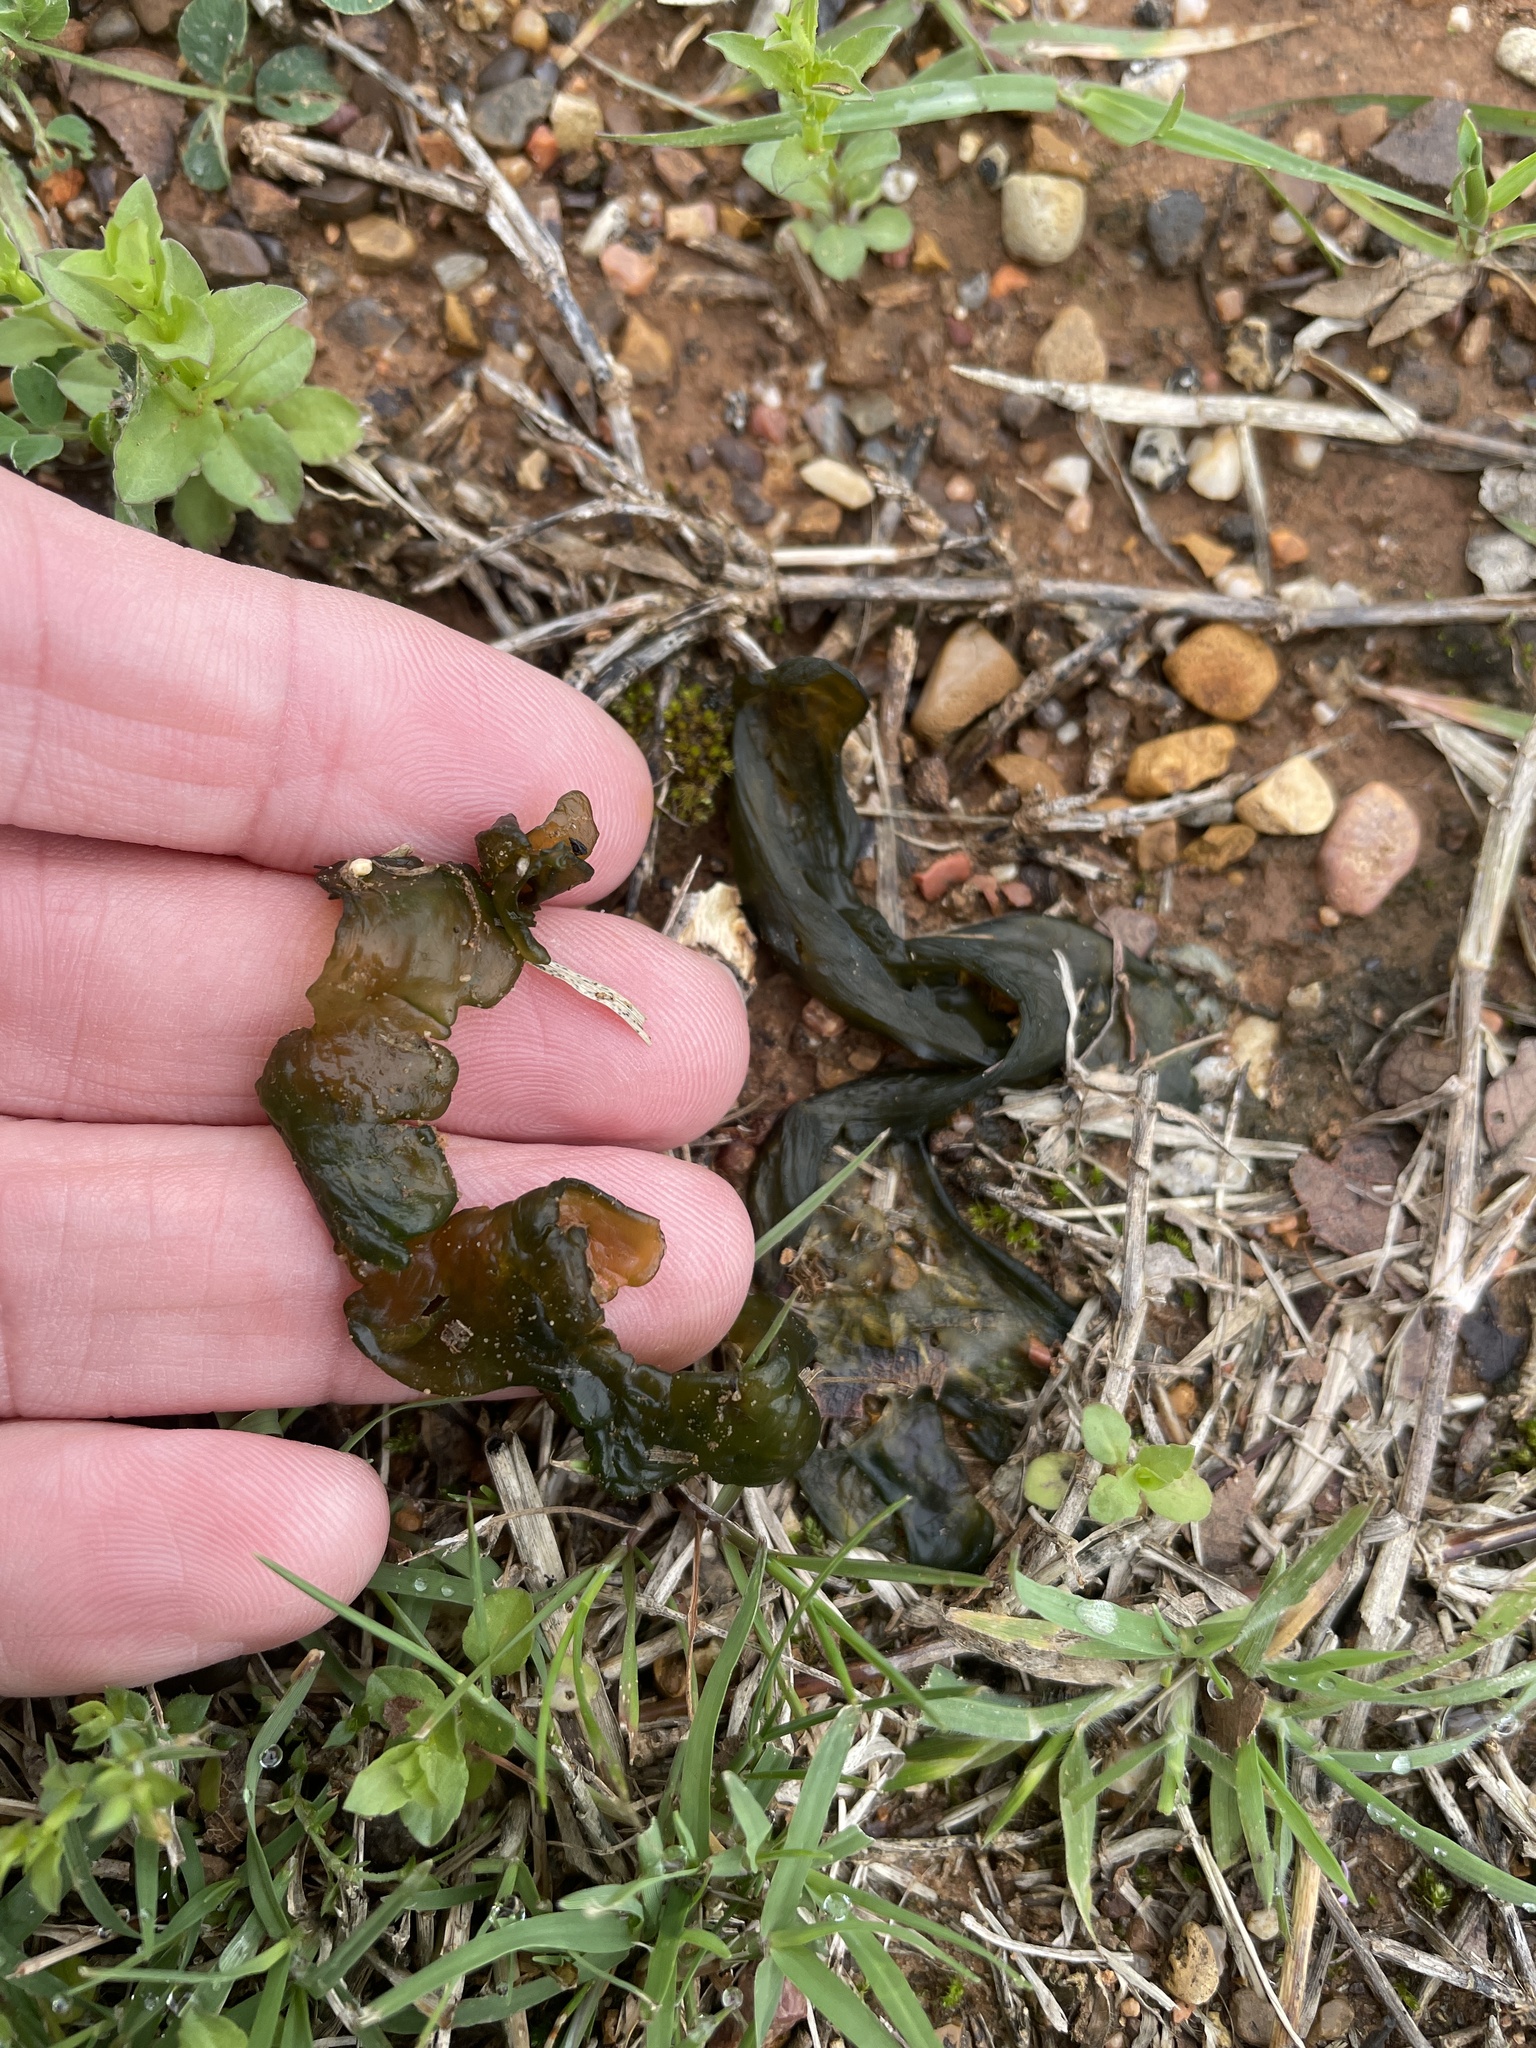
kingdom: Bacteria
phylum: Cyanobacteria
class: Cyanobacteriia
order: Cyanobacteriales
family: Nostocaceae
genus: Nostoc
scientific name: Nostoc commune
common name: Star jelly
